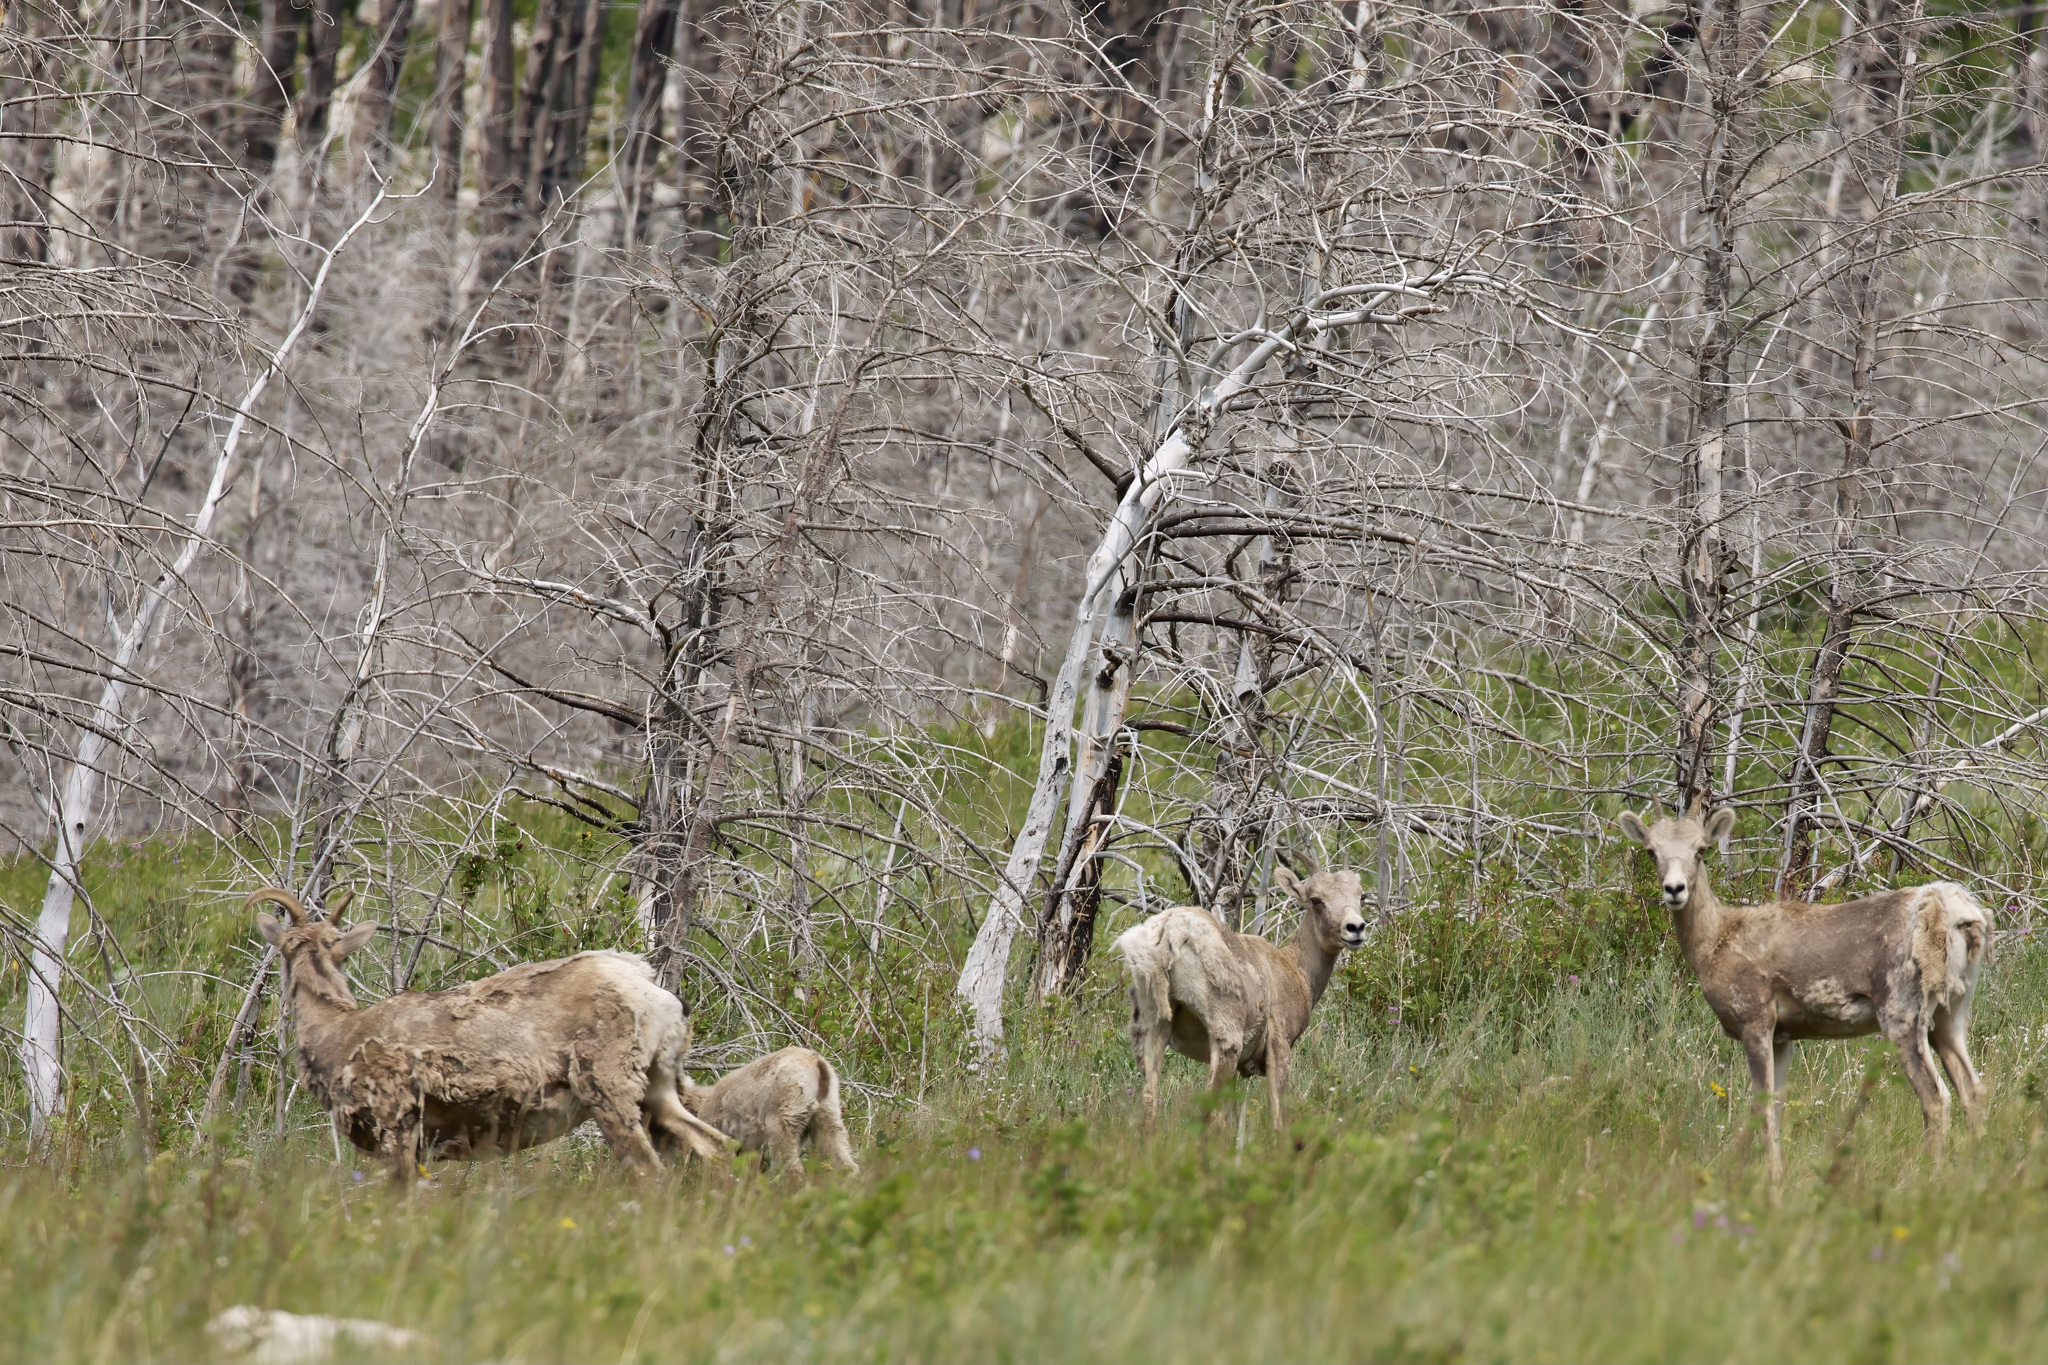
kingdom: Animalia
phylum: Chordata
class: Mammalia
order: Artiodactyla
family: Bovidae
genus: Ovis
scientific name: Ovis canadensis
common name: Bighorn sheep
